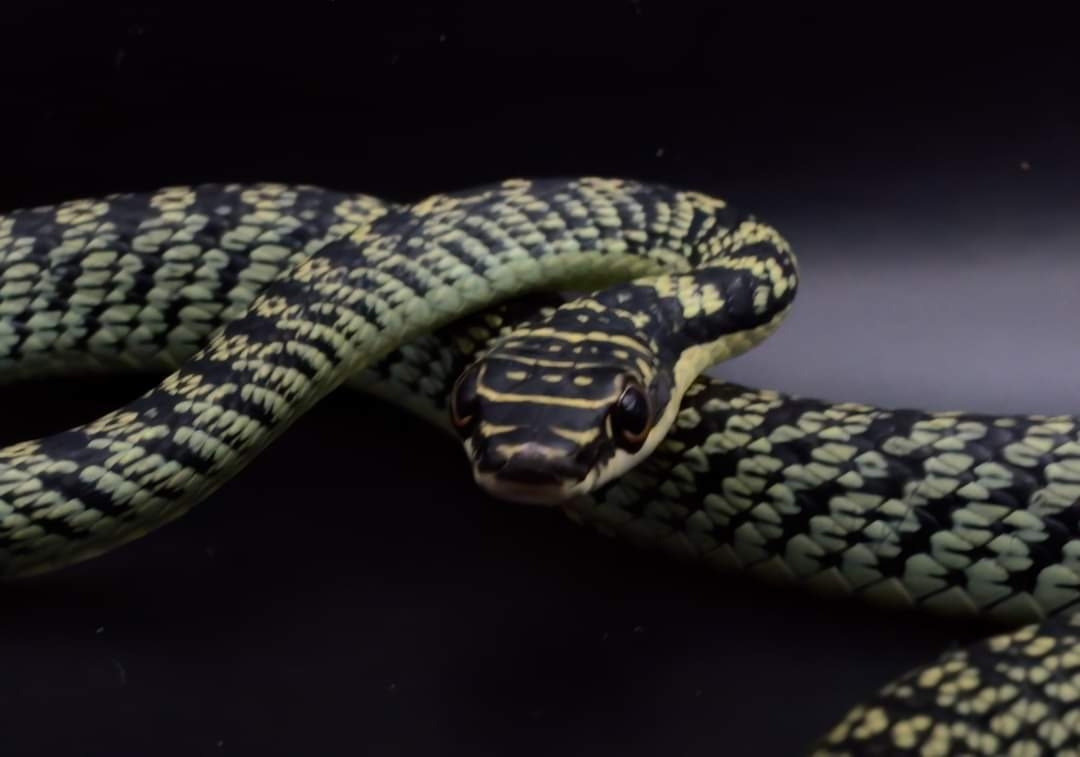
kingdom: Animalia
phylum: Chordata
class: Squamata
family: Colubridae
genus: Chrysopelea
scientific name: Chrysopelea ornata
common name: Golden flying snake
